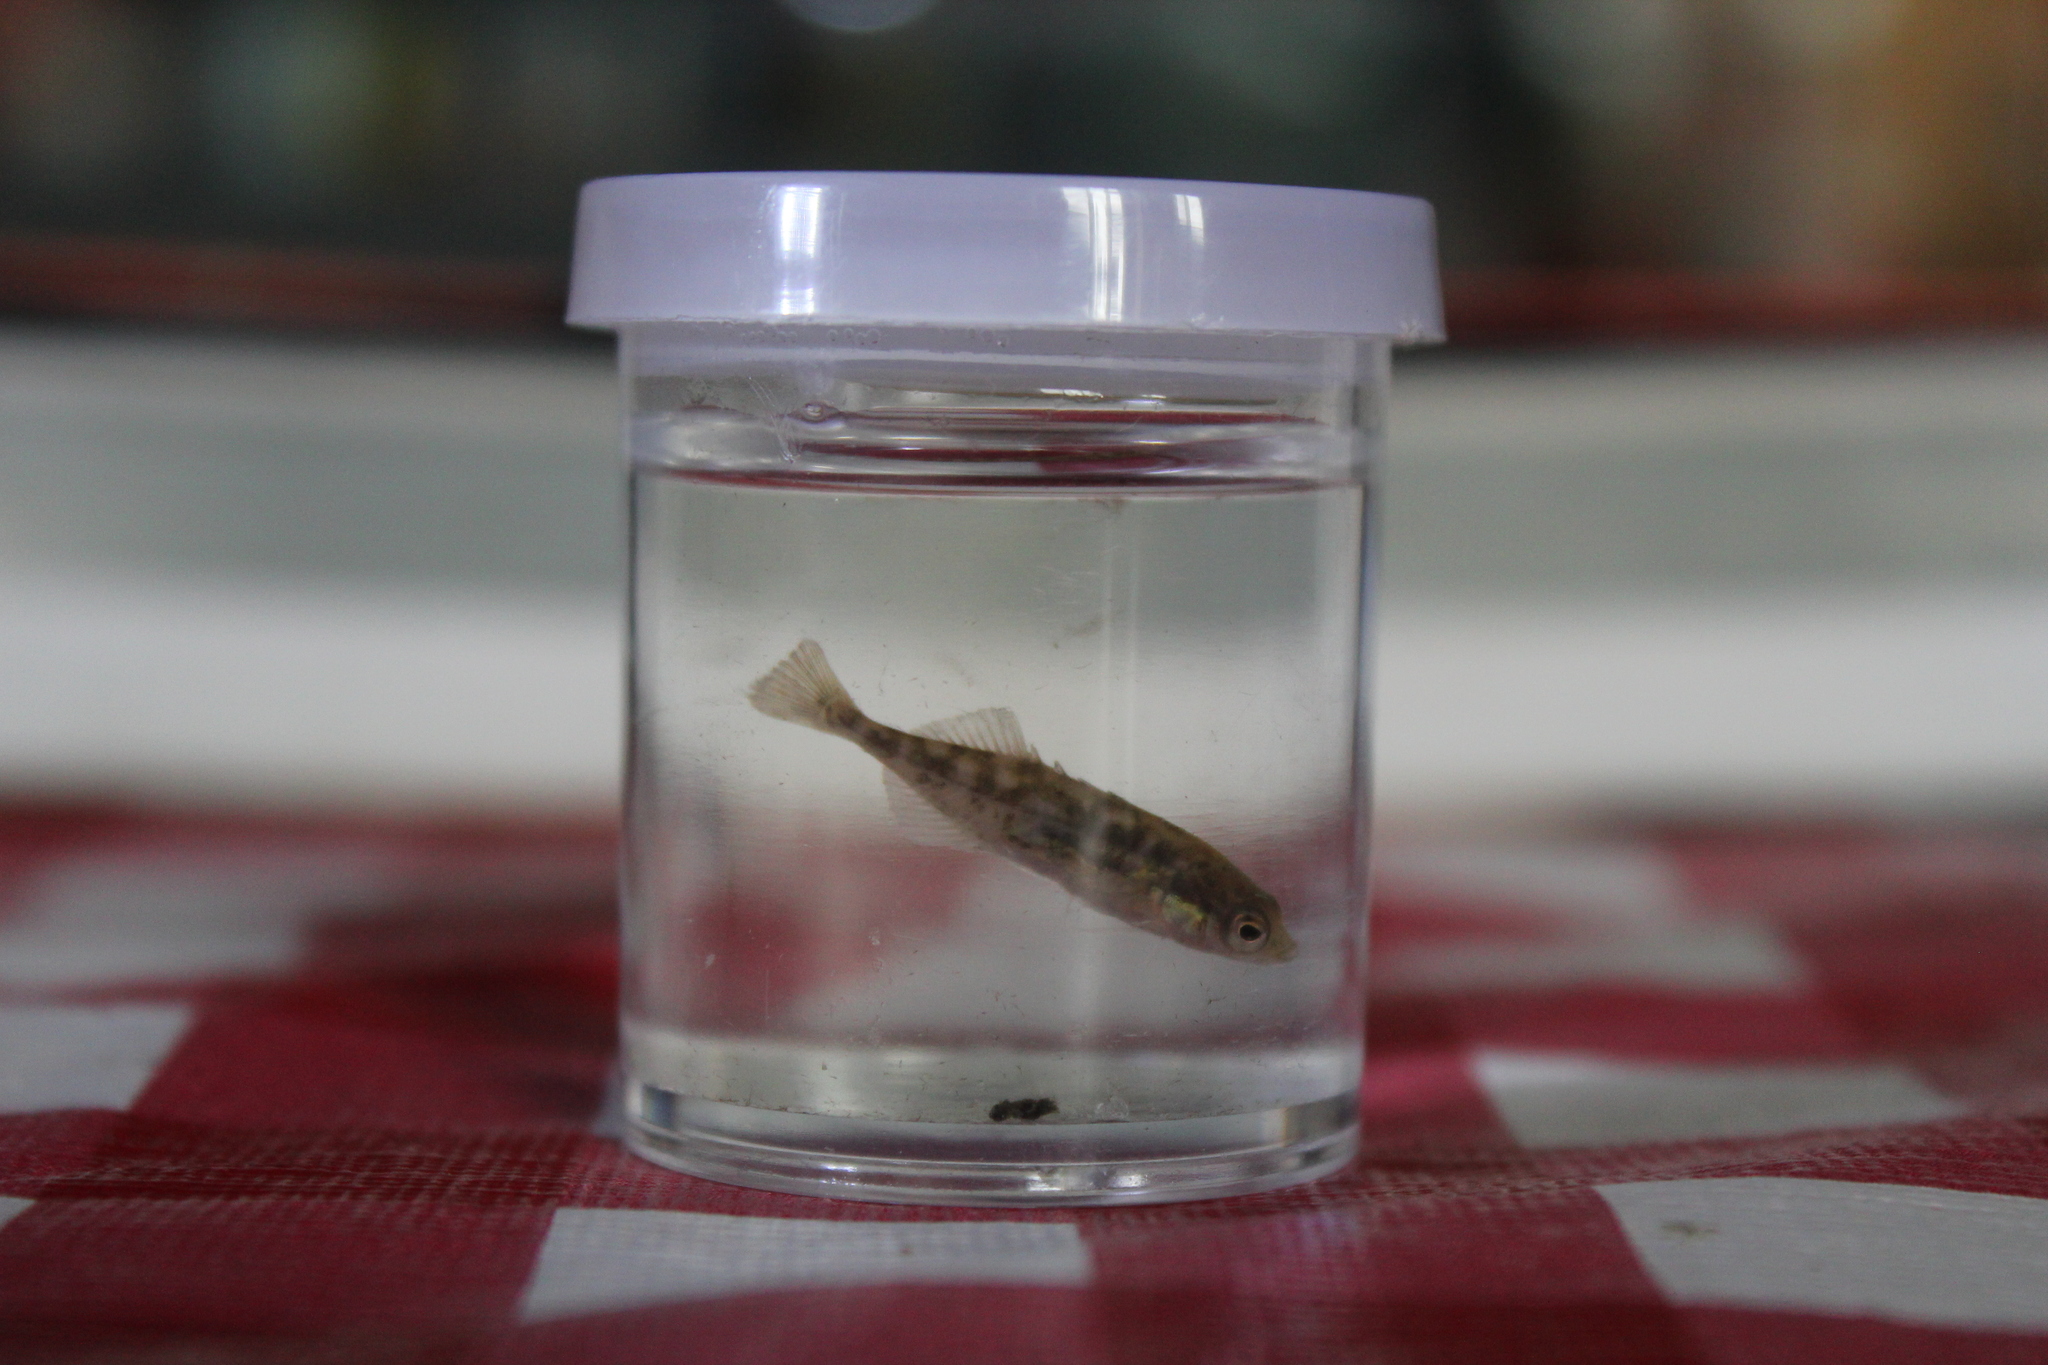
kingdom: Animalia
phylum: Chordata
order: Gasterosteiformes
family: Gasterosteidae
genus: Culaea
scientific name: Culaea inconstans
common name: Brook stickleback
